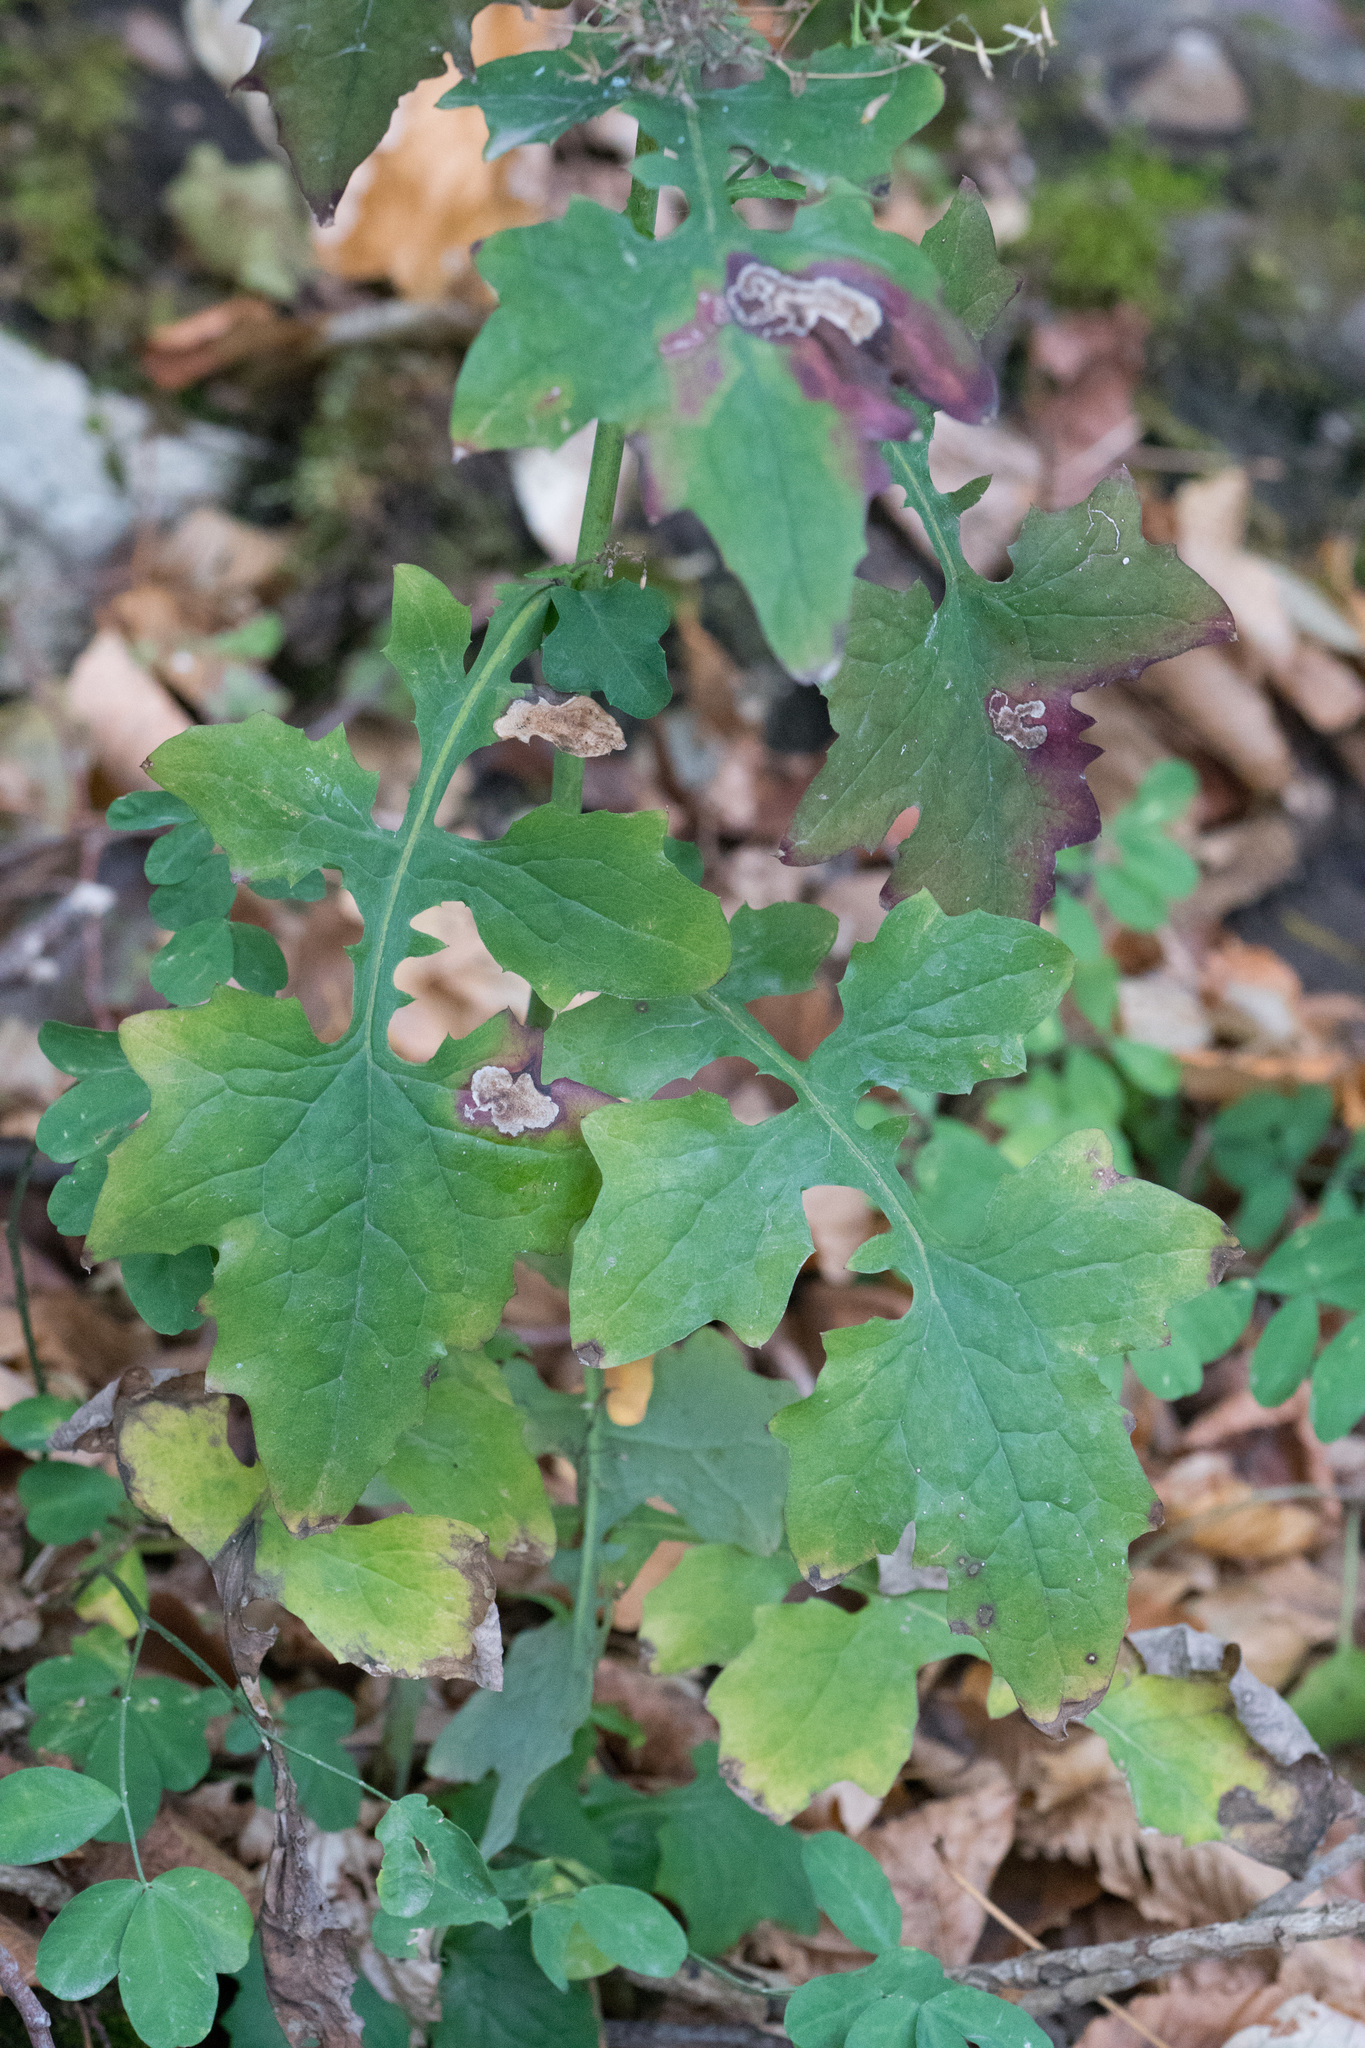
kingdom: Plantae
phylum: Tracheophyta
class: Magnoliopsida
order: Asterales
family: Asteraceae
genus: Mycelis
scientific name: Mycelis muralis
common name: Wall lettuce
